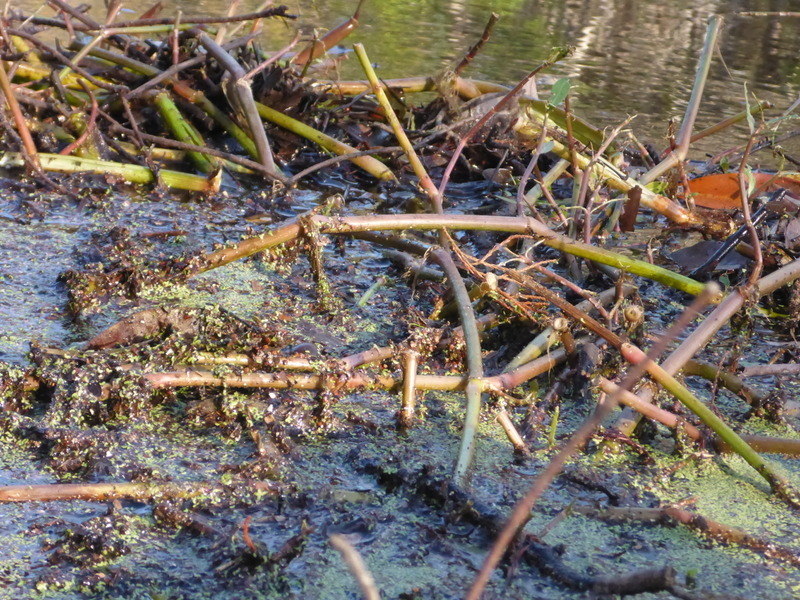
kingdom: Plantae
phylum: Tracheophyta
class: Magnoliopsida
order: Caryophyllales
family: Amaranthaceae
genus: Alternanthera
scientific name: Alternanthera philoxeroides
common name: Alligatorweed
